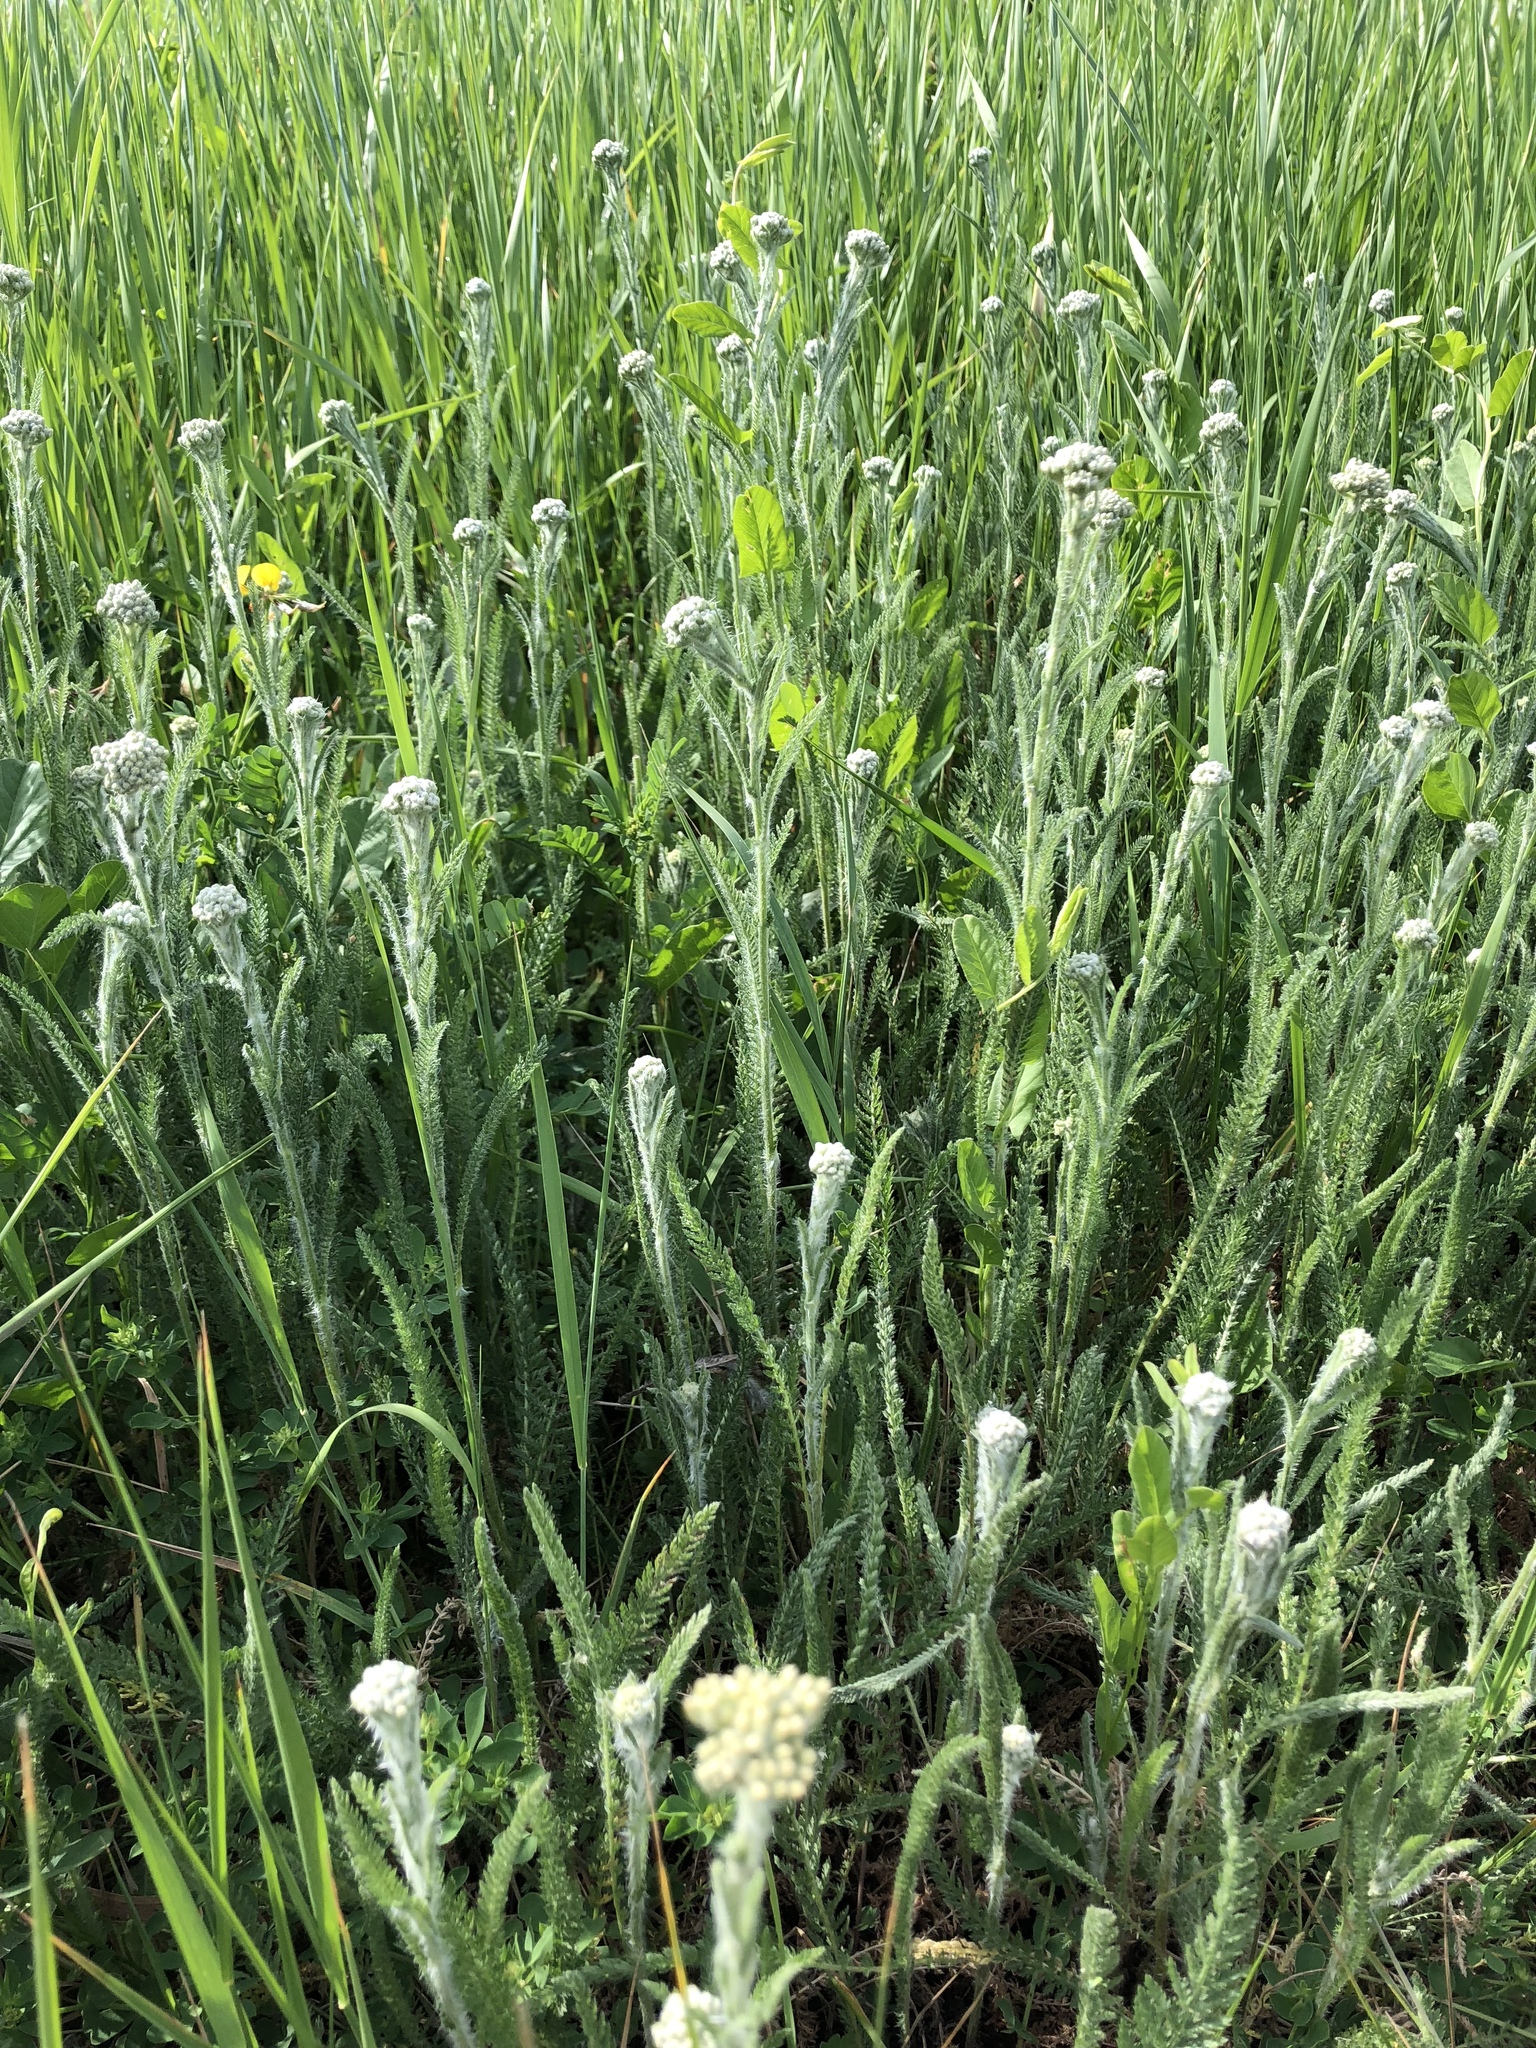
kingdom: Plantae
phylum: Tracheophyta
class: Magnoliopsida
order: Asterales
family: Asteraceae
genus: Achillea
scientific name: Achillea millefolium
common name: Yarrow
